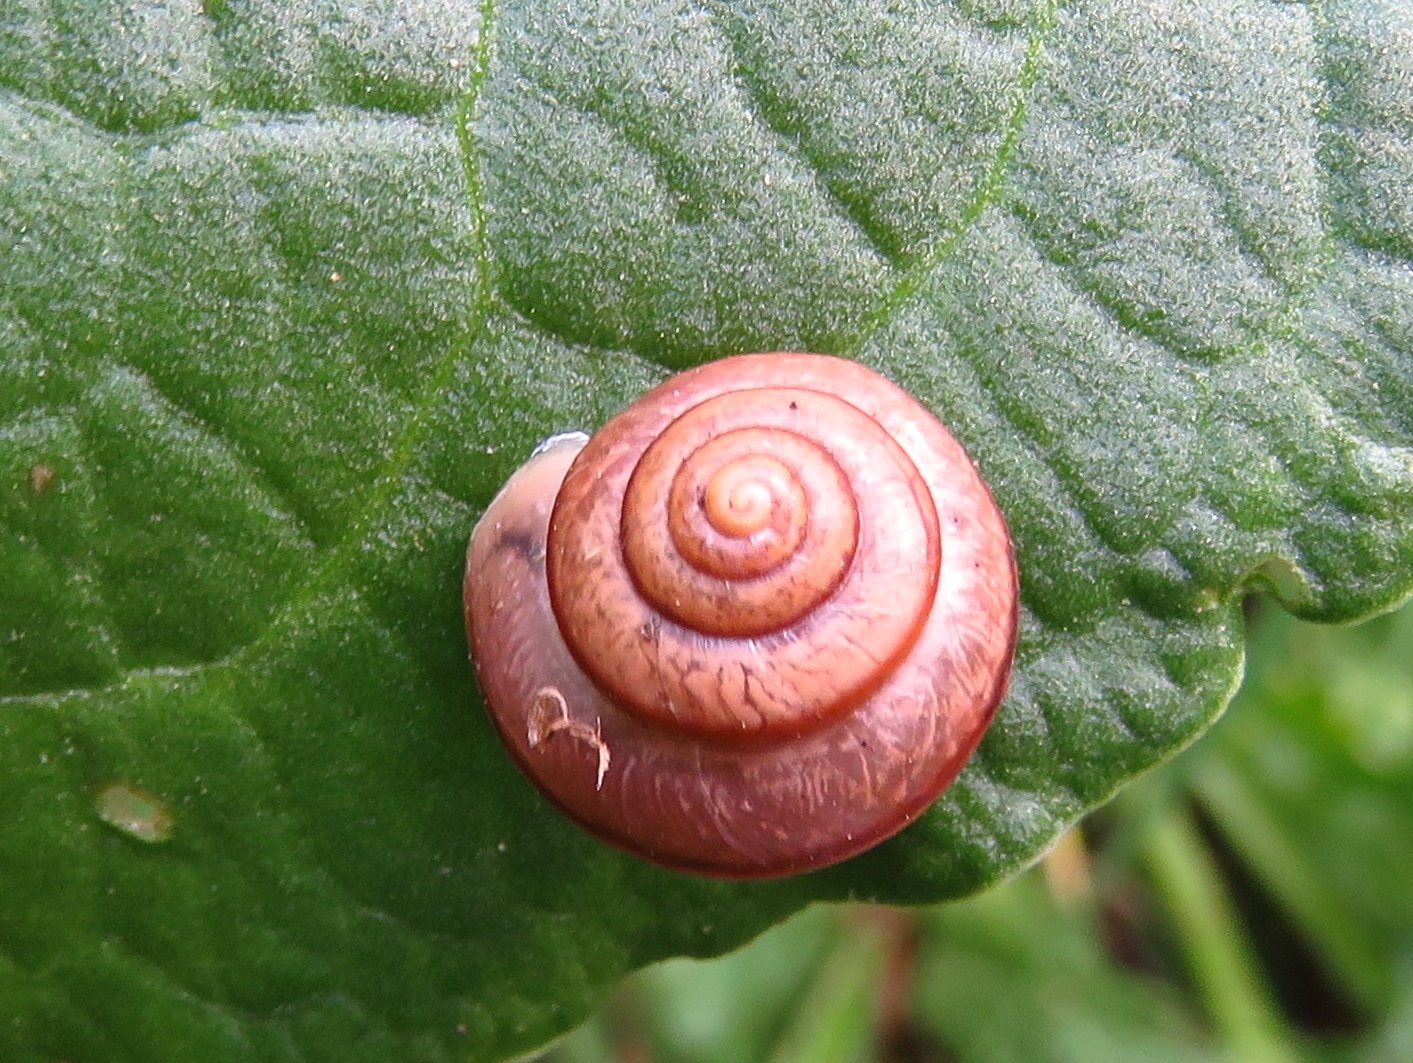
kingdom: Animalia
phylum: Mollusca
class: Gastropoda
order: Stylommatophora
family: Camaenidae
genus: Bradybaena
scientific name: Bradybaena similaris
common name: Asian trampsnail
